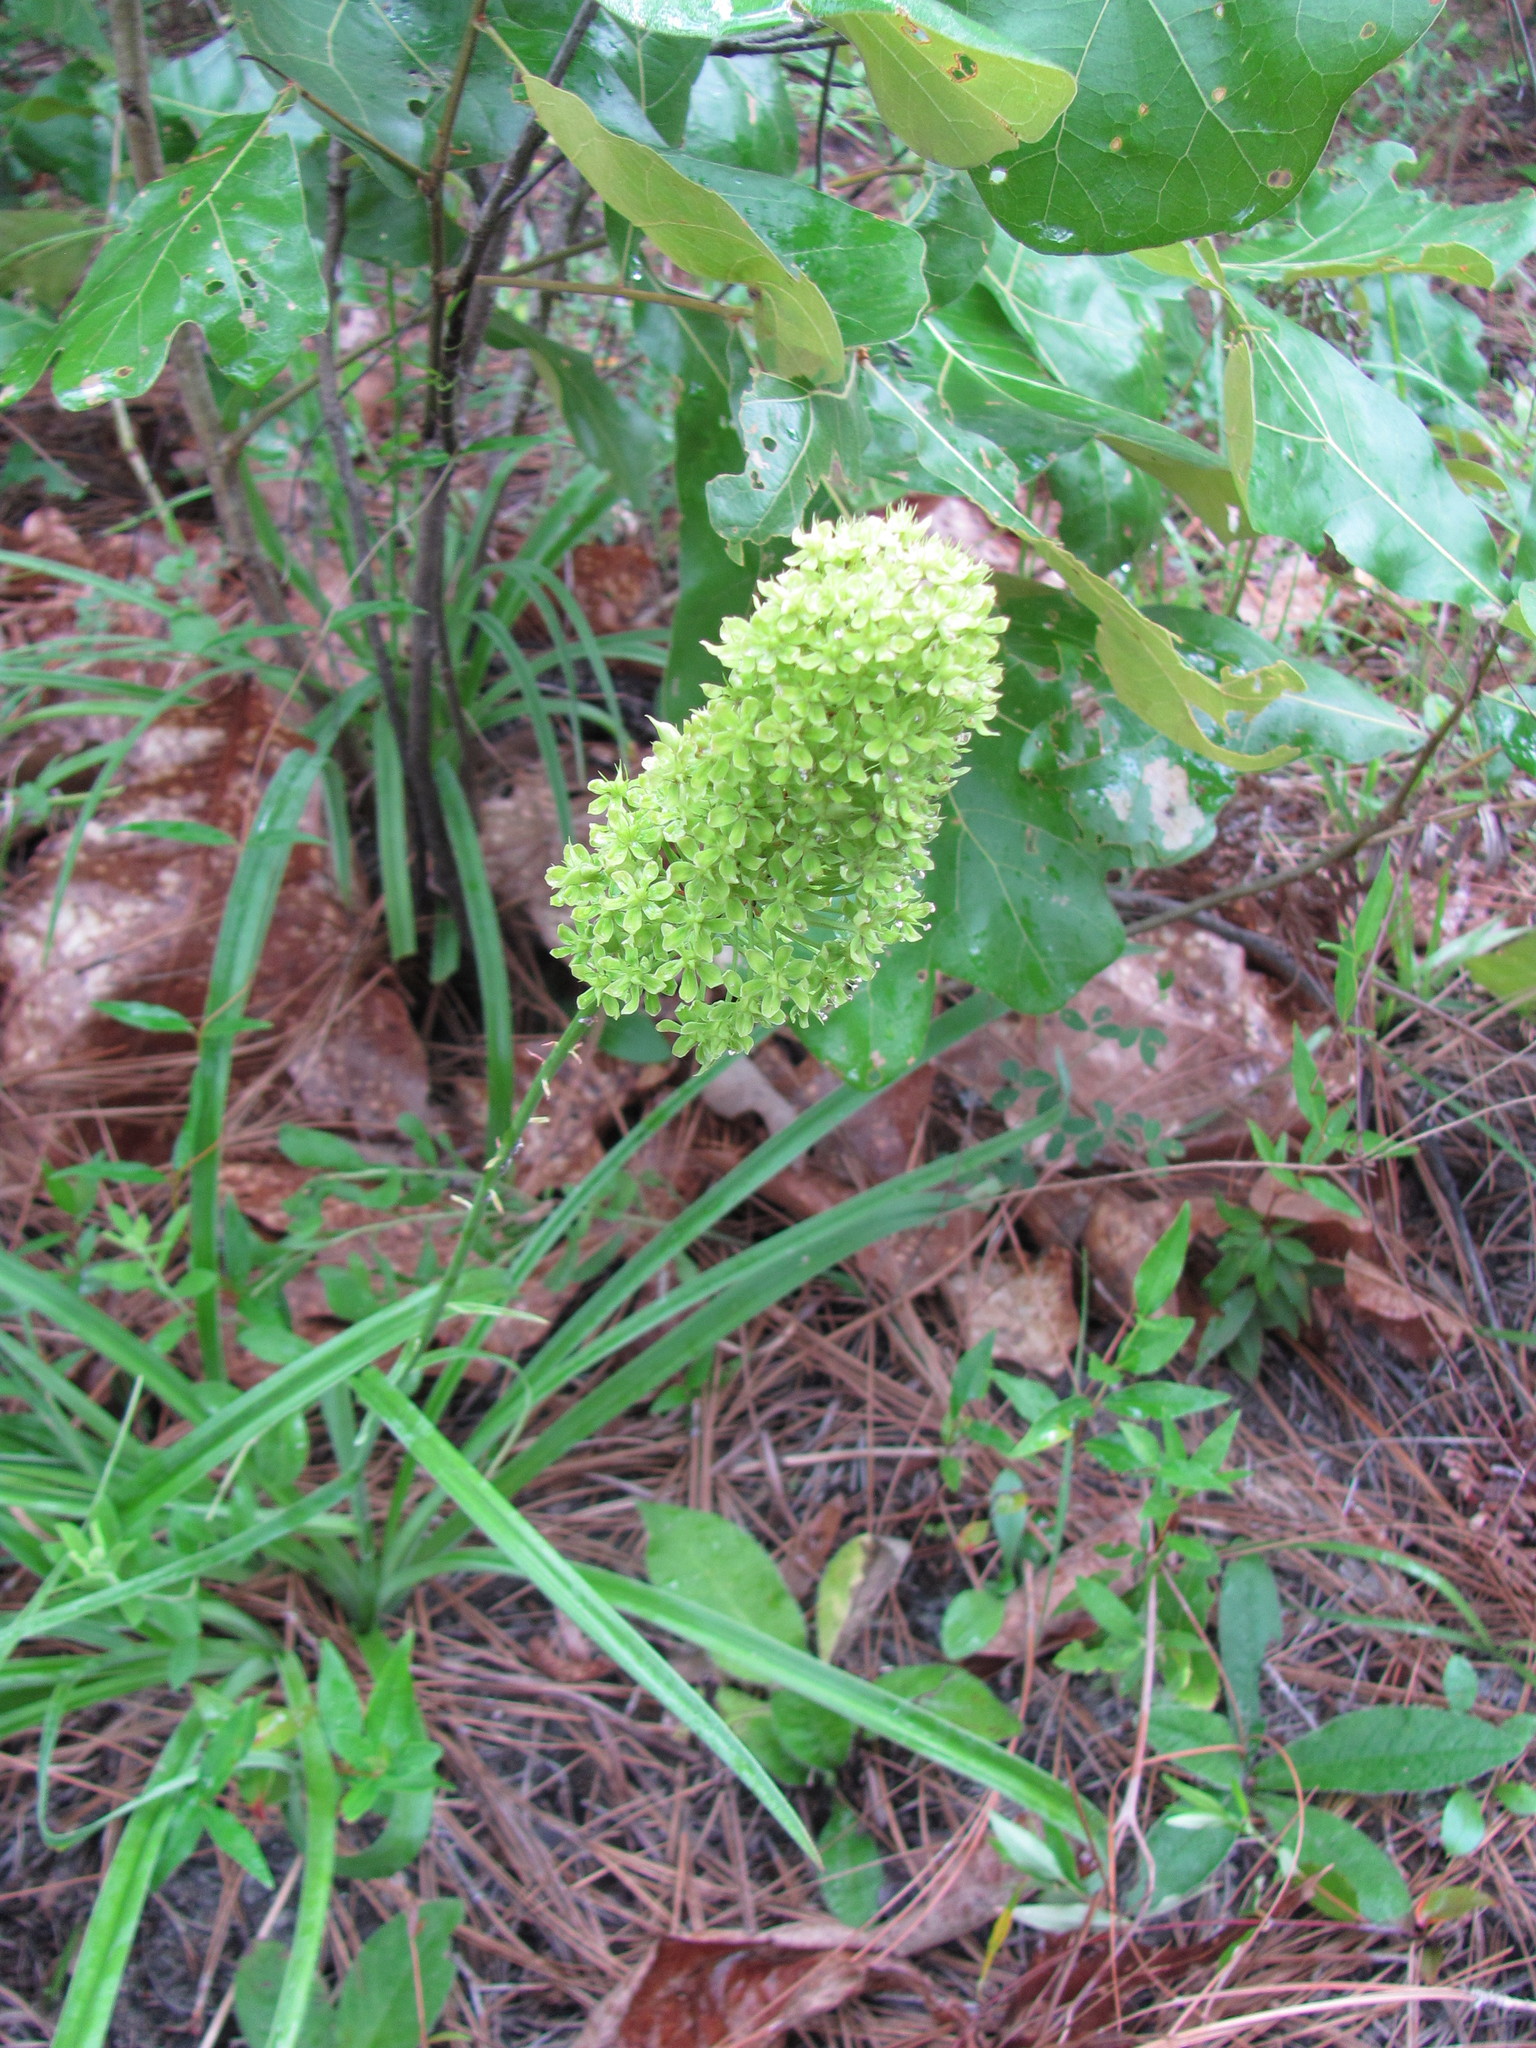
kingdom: Plantae
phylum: Tracheophyta
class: Liliopsida
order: Liliales
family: Melanthiaceae
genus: Amianthium
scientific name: Amianthium muscitoxicum
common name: Fly-poison
